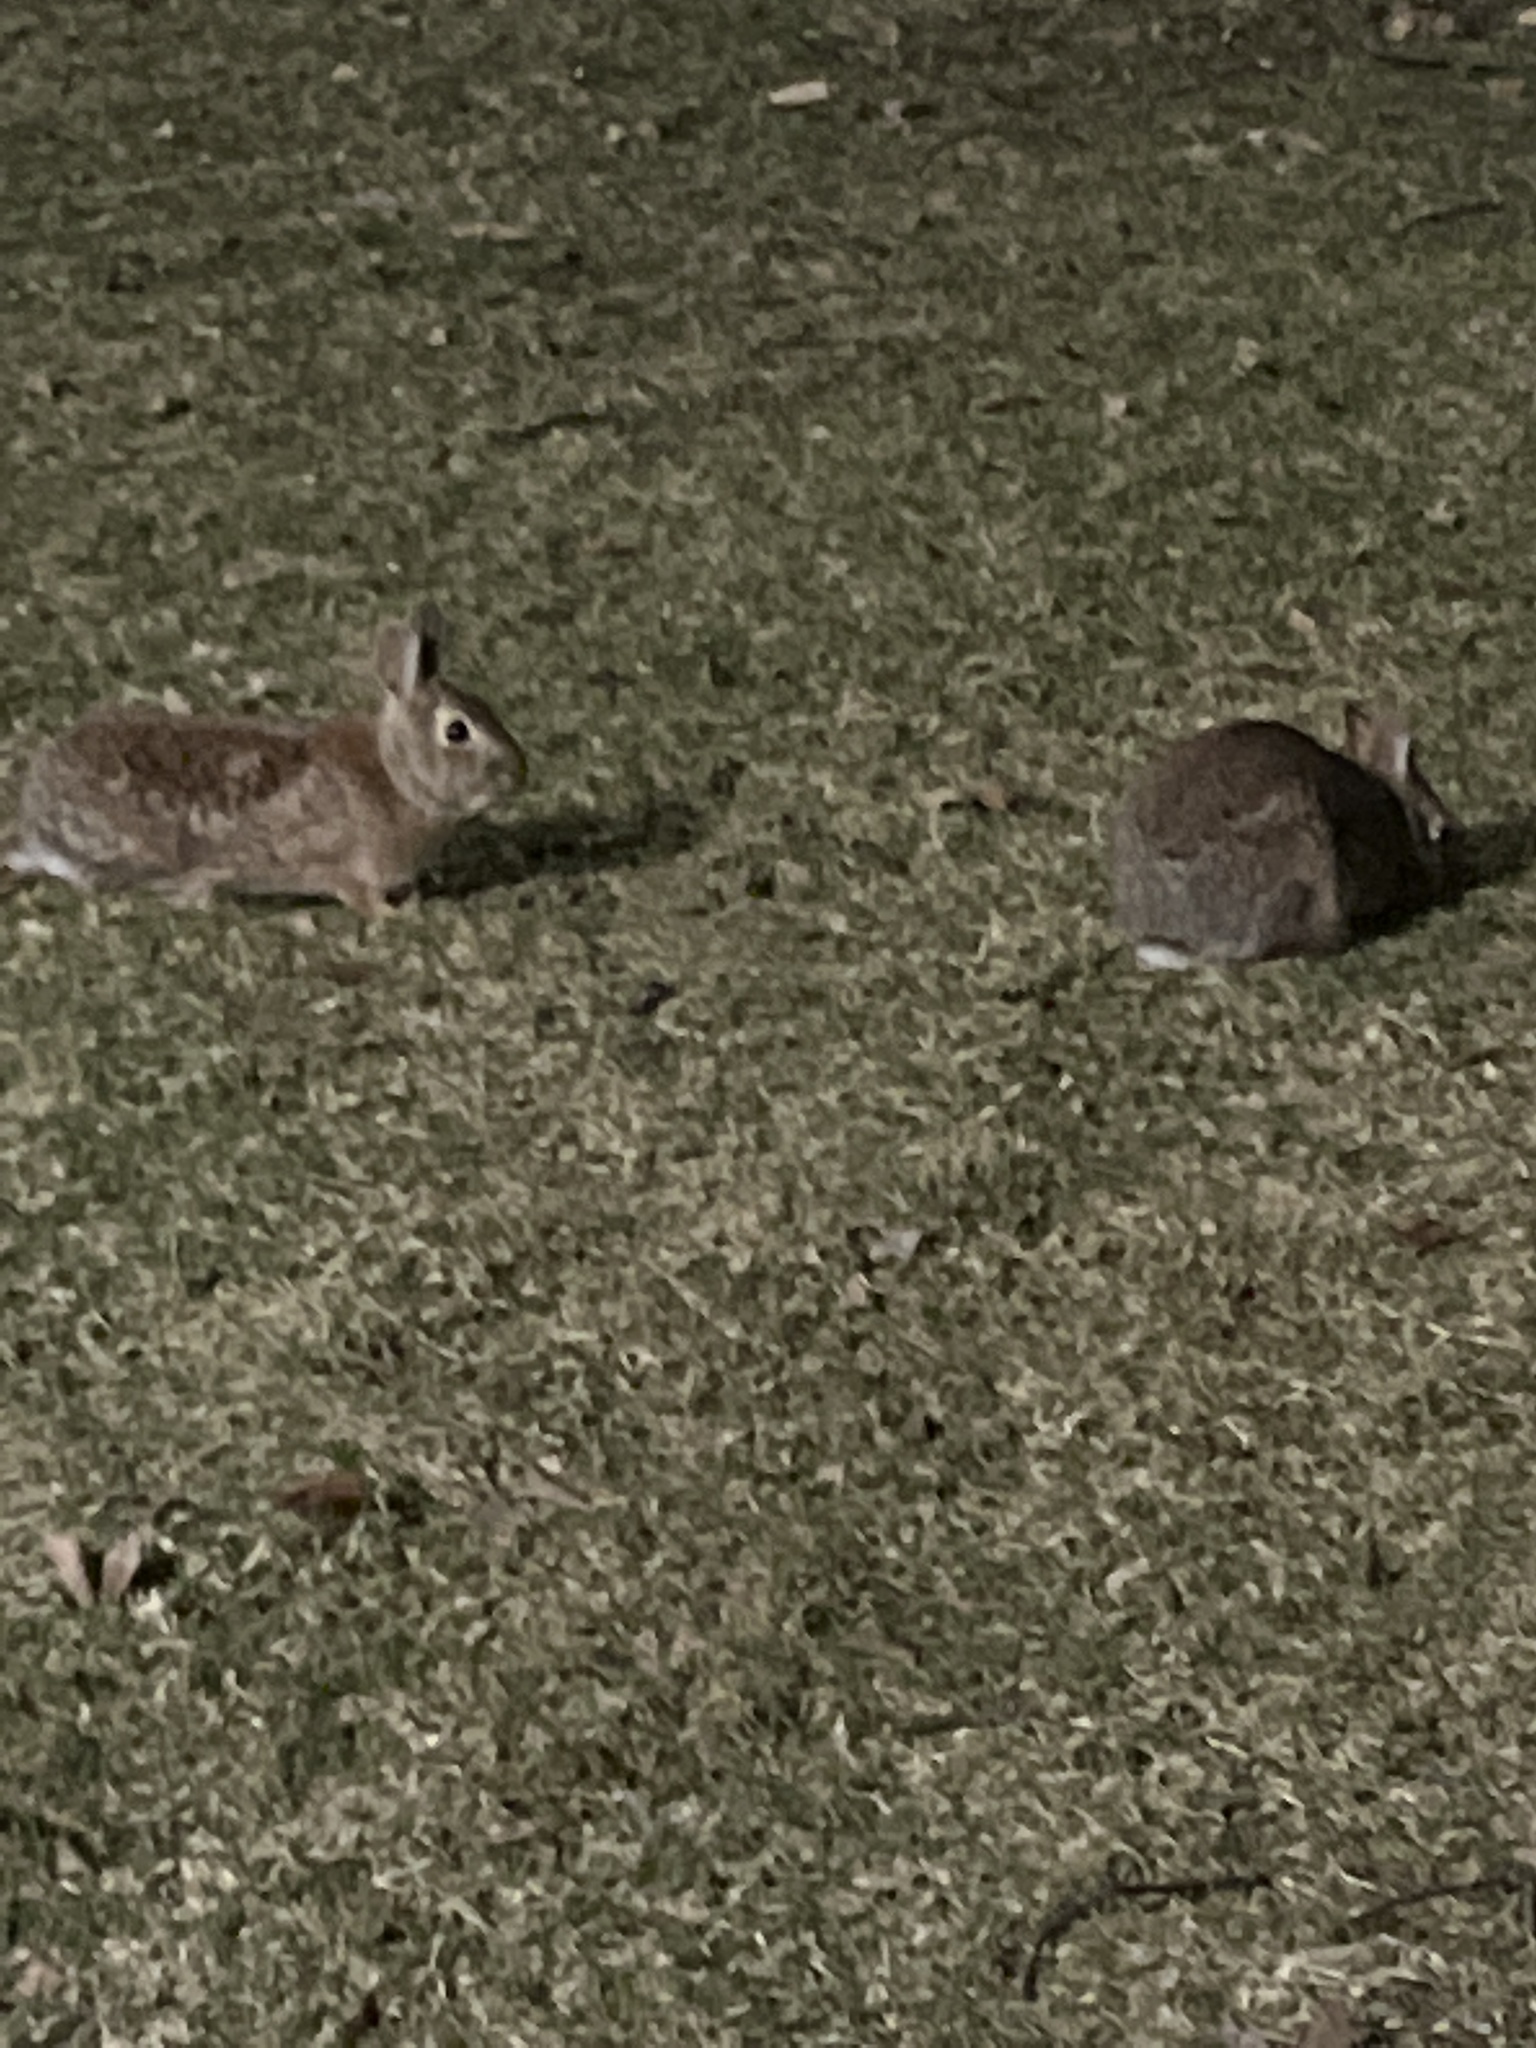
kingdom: Animalia
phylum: Chordata
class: Mammalia
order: Lagomorpha
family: Leporidae
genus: Sylvilagus
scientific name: Sylvilagus floridanus
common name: Eastern cottontail
